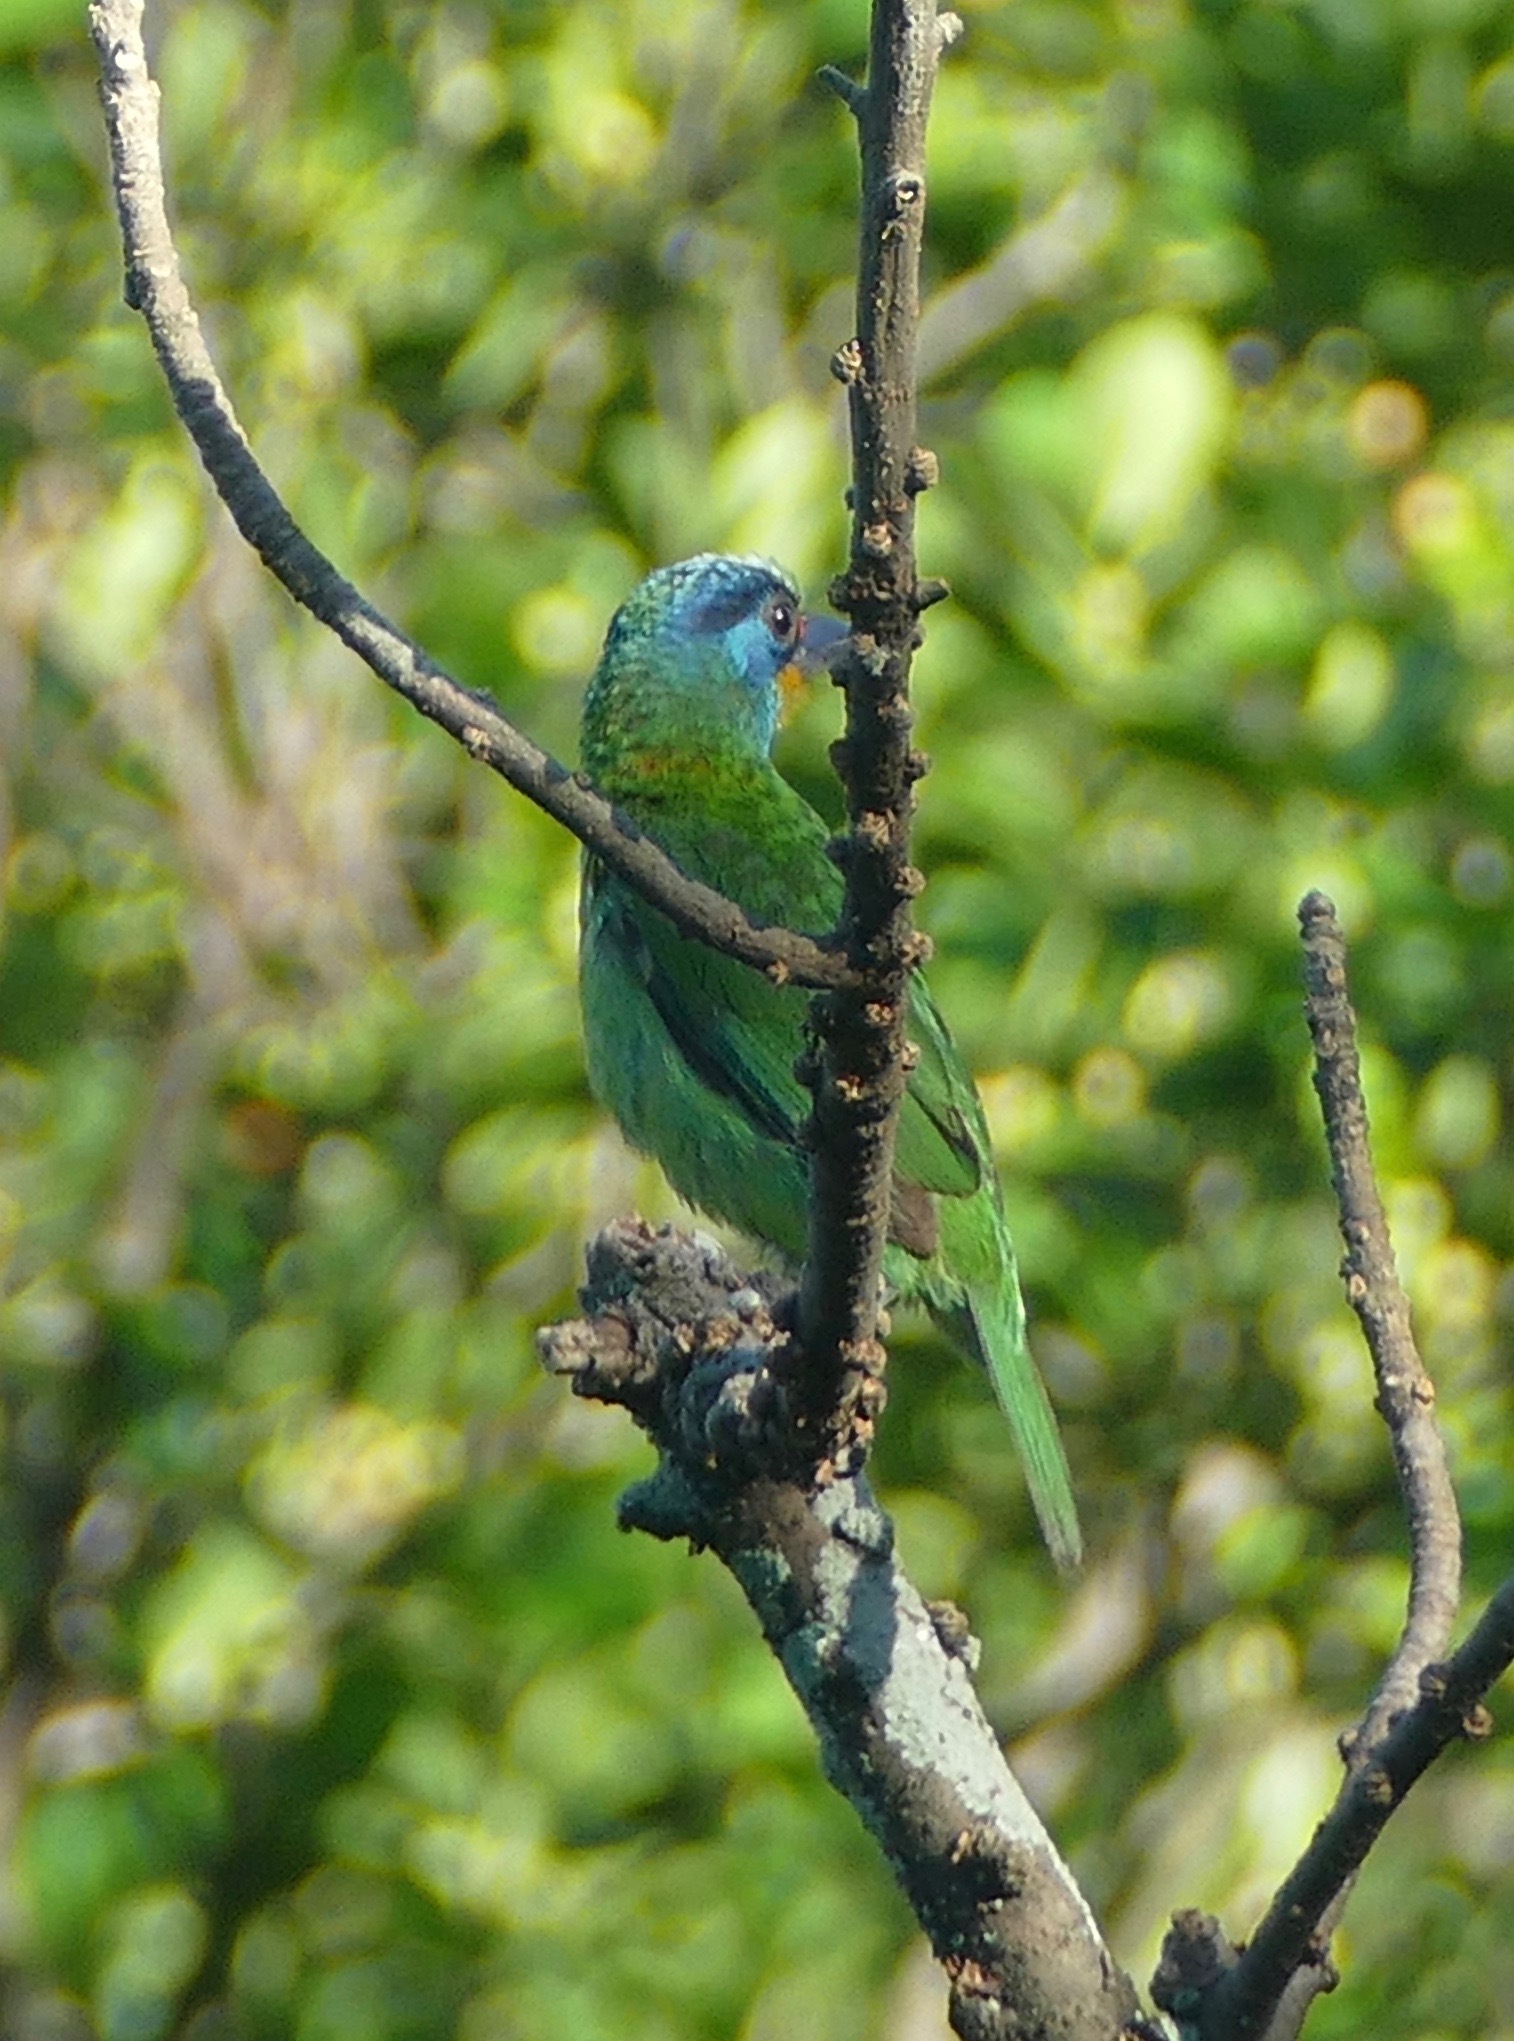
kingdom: Animalia
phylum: Chordata
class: Aves
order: Piciformes
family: Megalaimidae
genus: Psilopogon
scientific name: Psilopogon nuchalis
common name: Taiwan barbet
